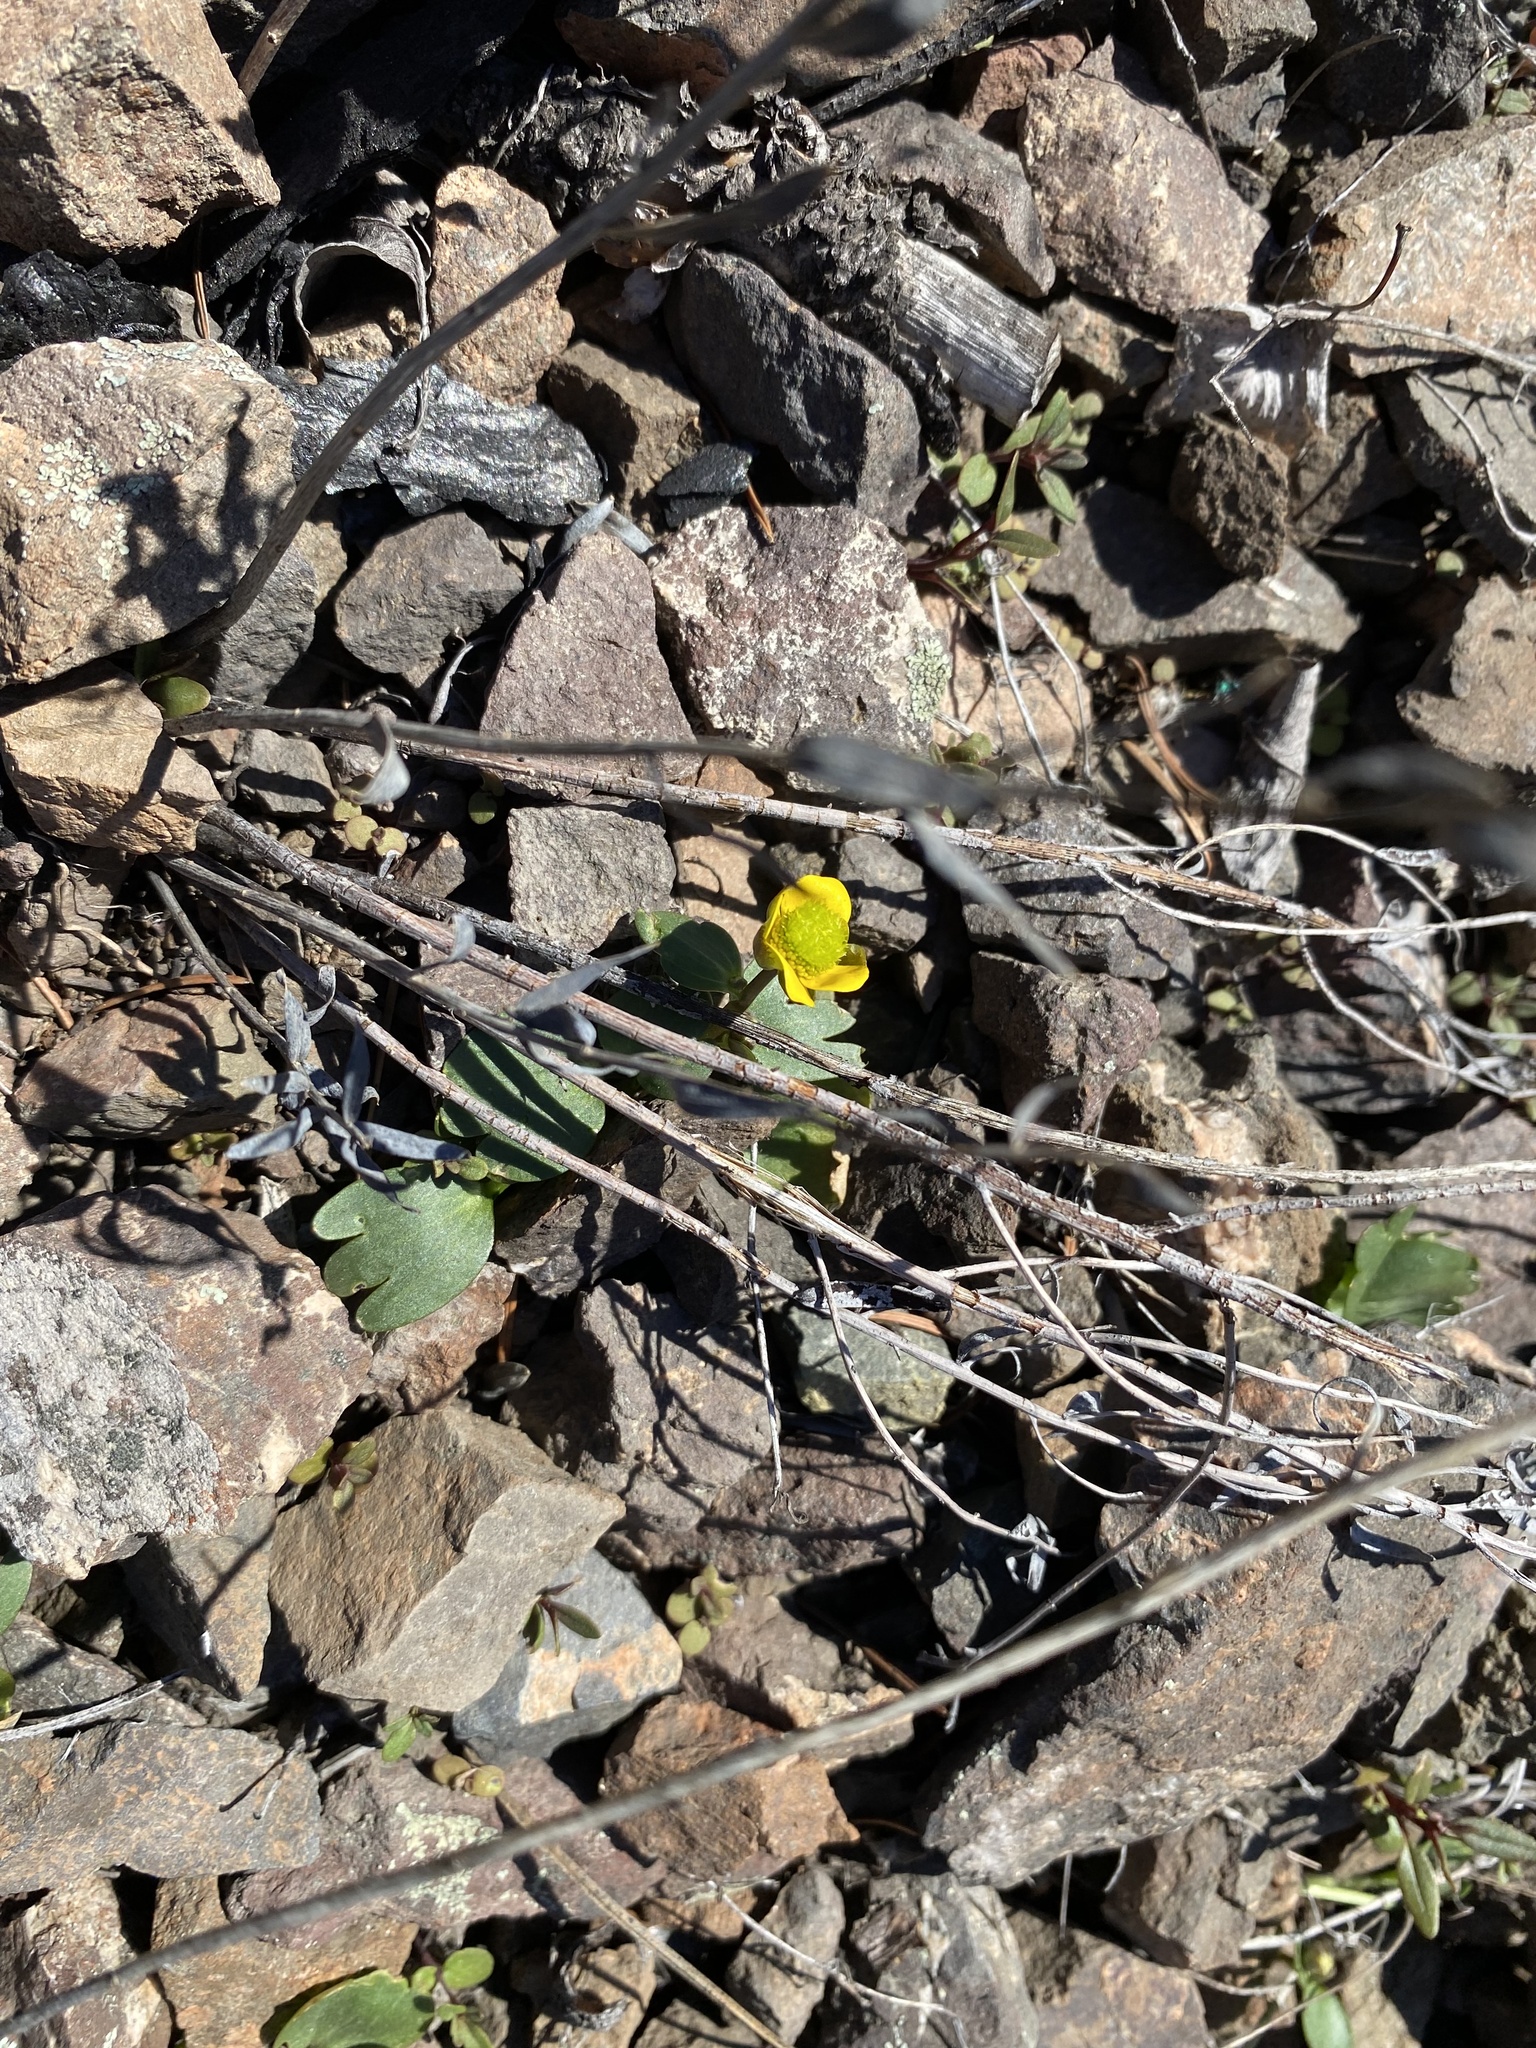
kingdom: Plantae
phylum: Tracheophyta
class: Magnoliopsida
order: Ranunculales
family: Ranunculaceae
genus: Ranunculus
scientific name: Ranunculus glaberrimus
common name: Sagebrush buttercup
